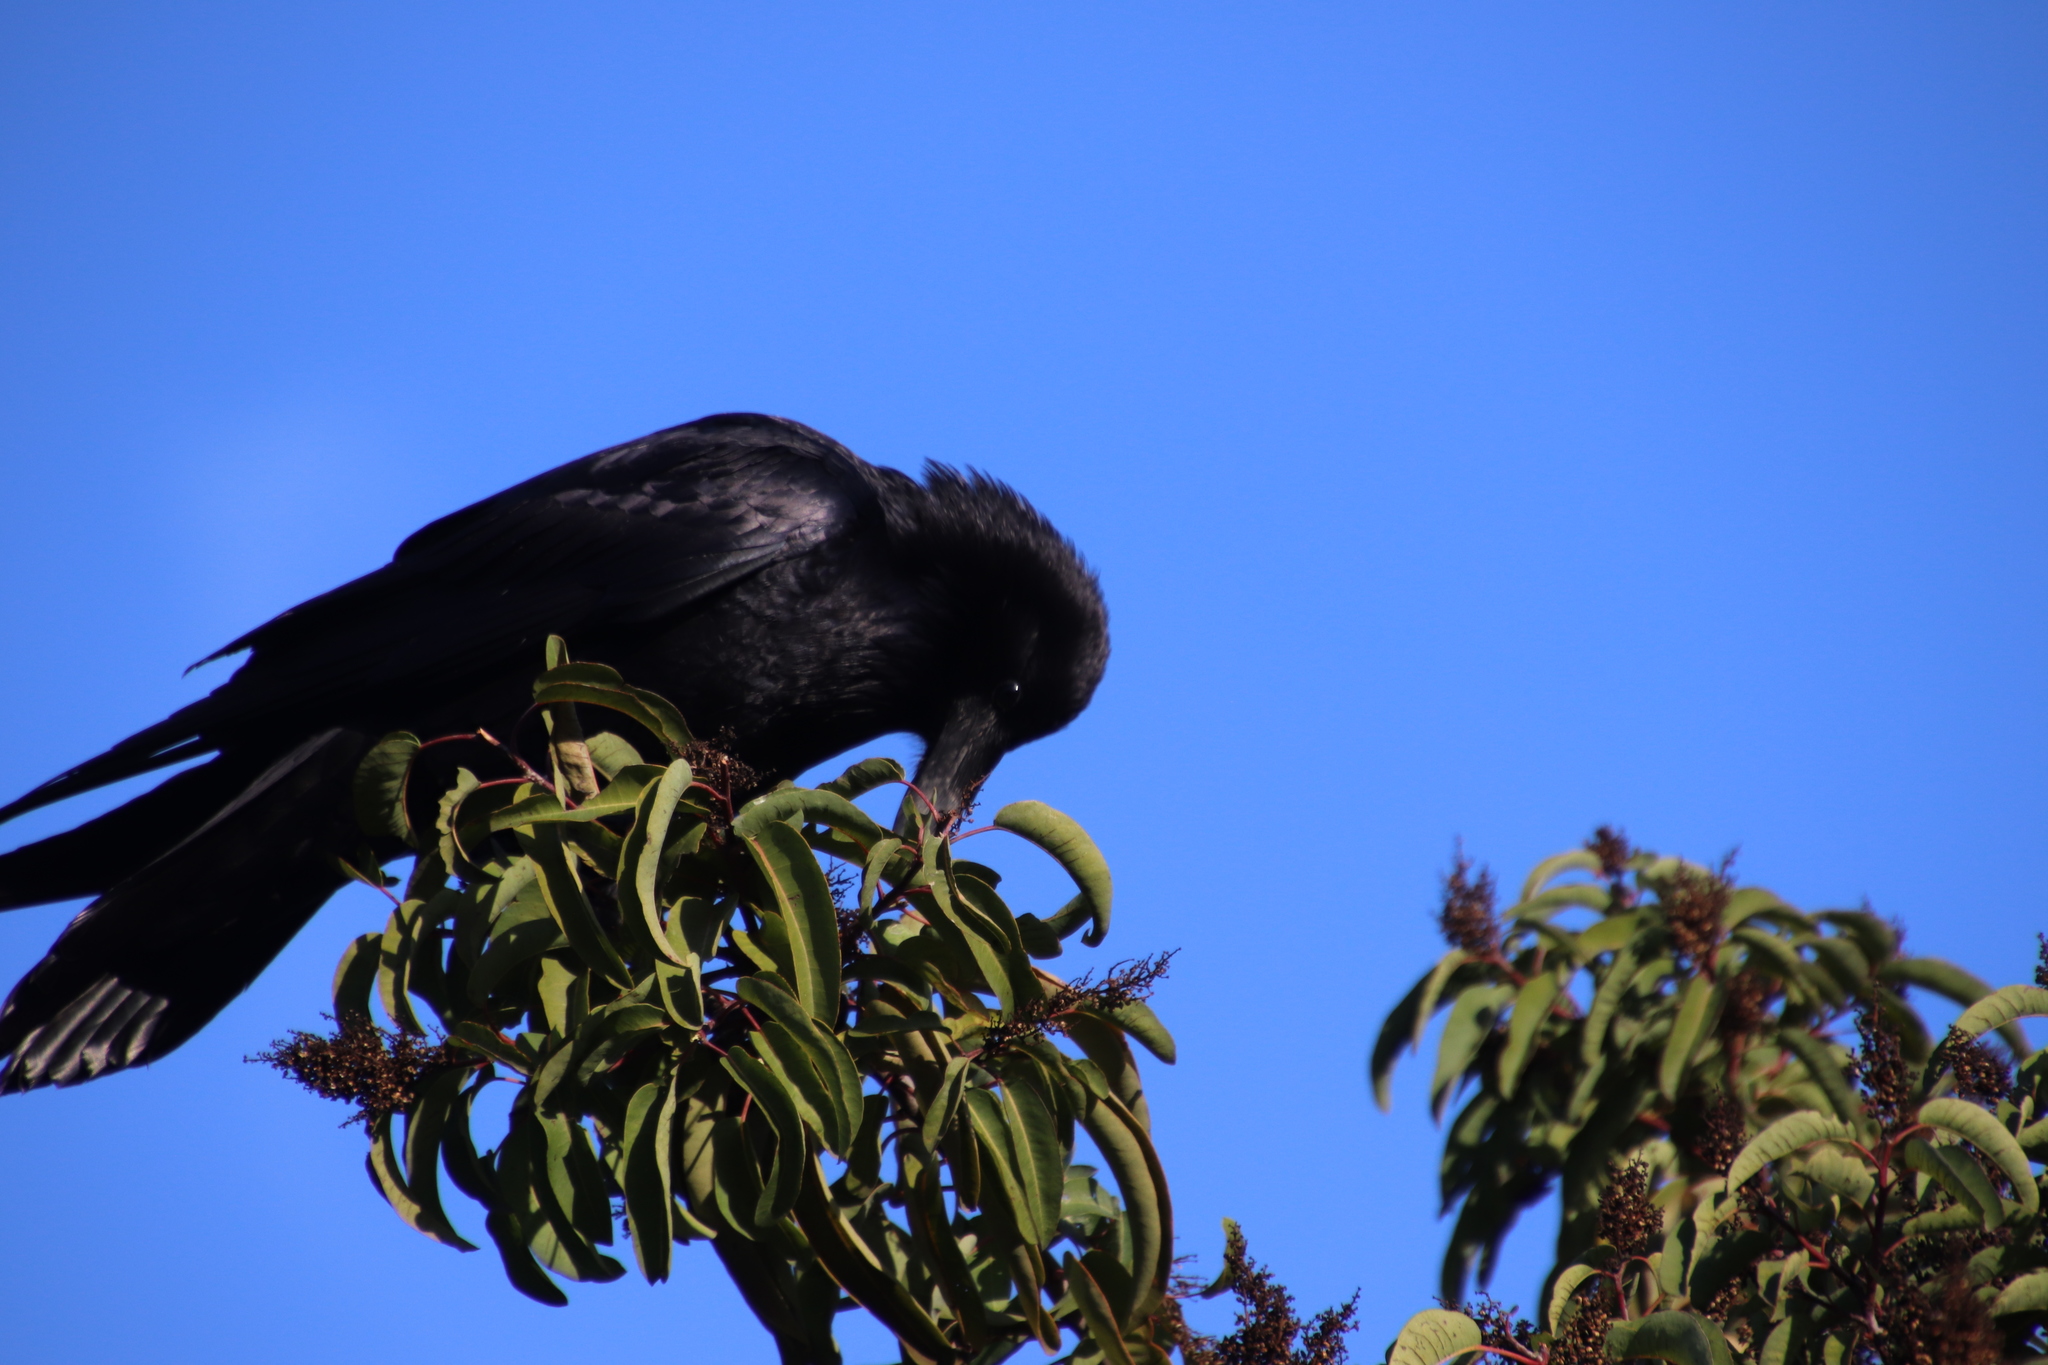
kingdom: Animalia
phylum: Chordata
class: Aves
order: Passeriformes
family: Corvidae
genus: Corvus
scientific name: Corvus corax
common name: Common raven
